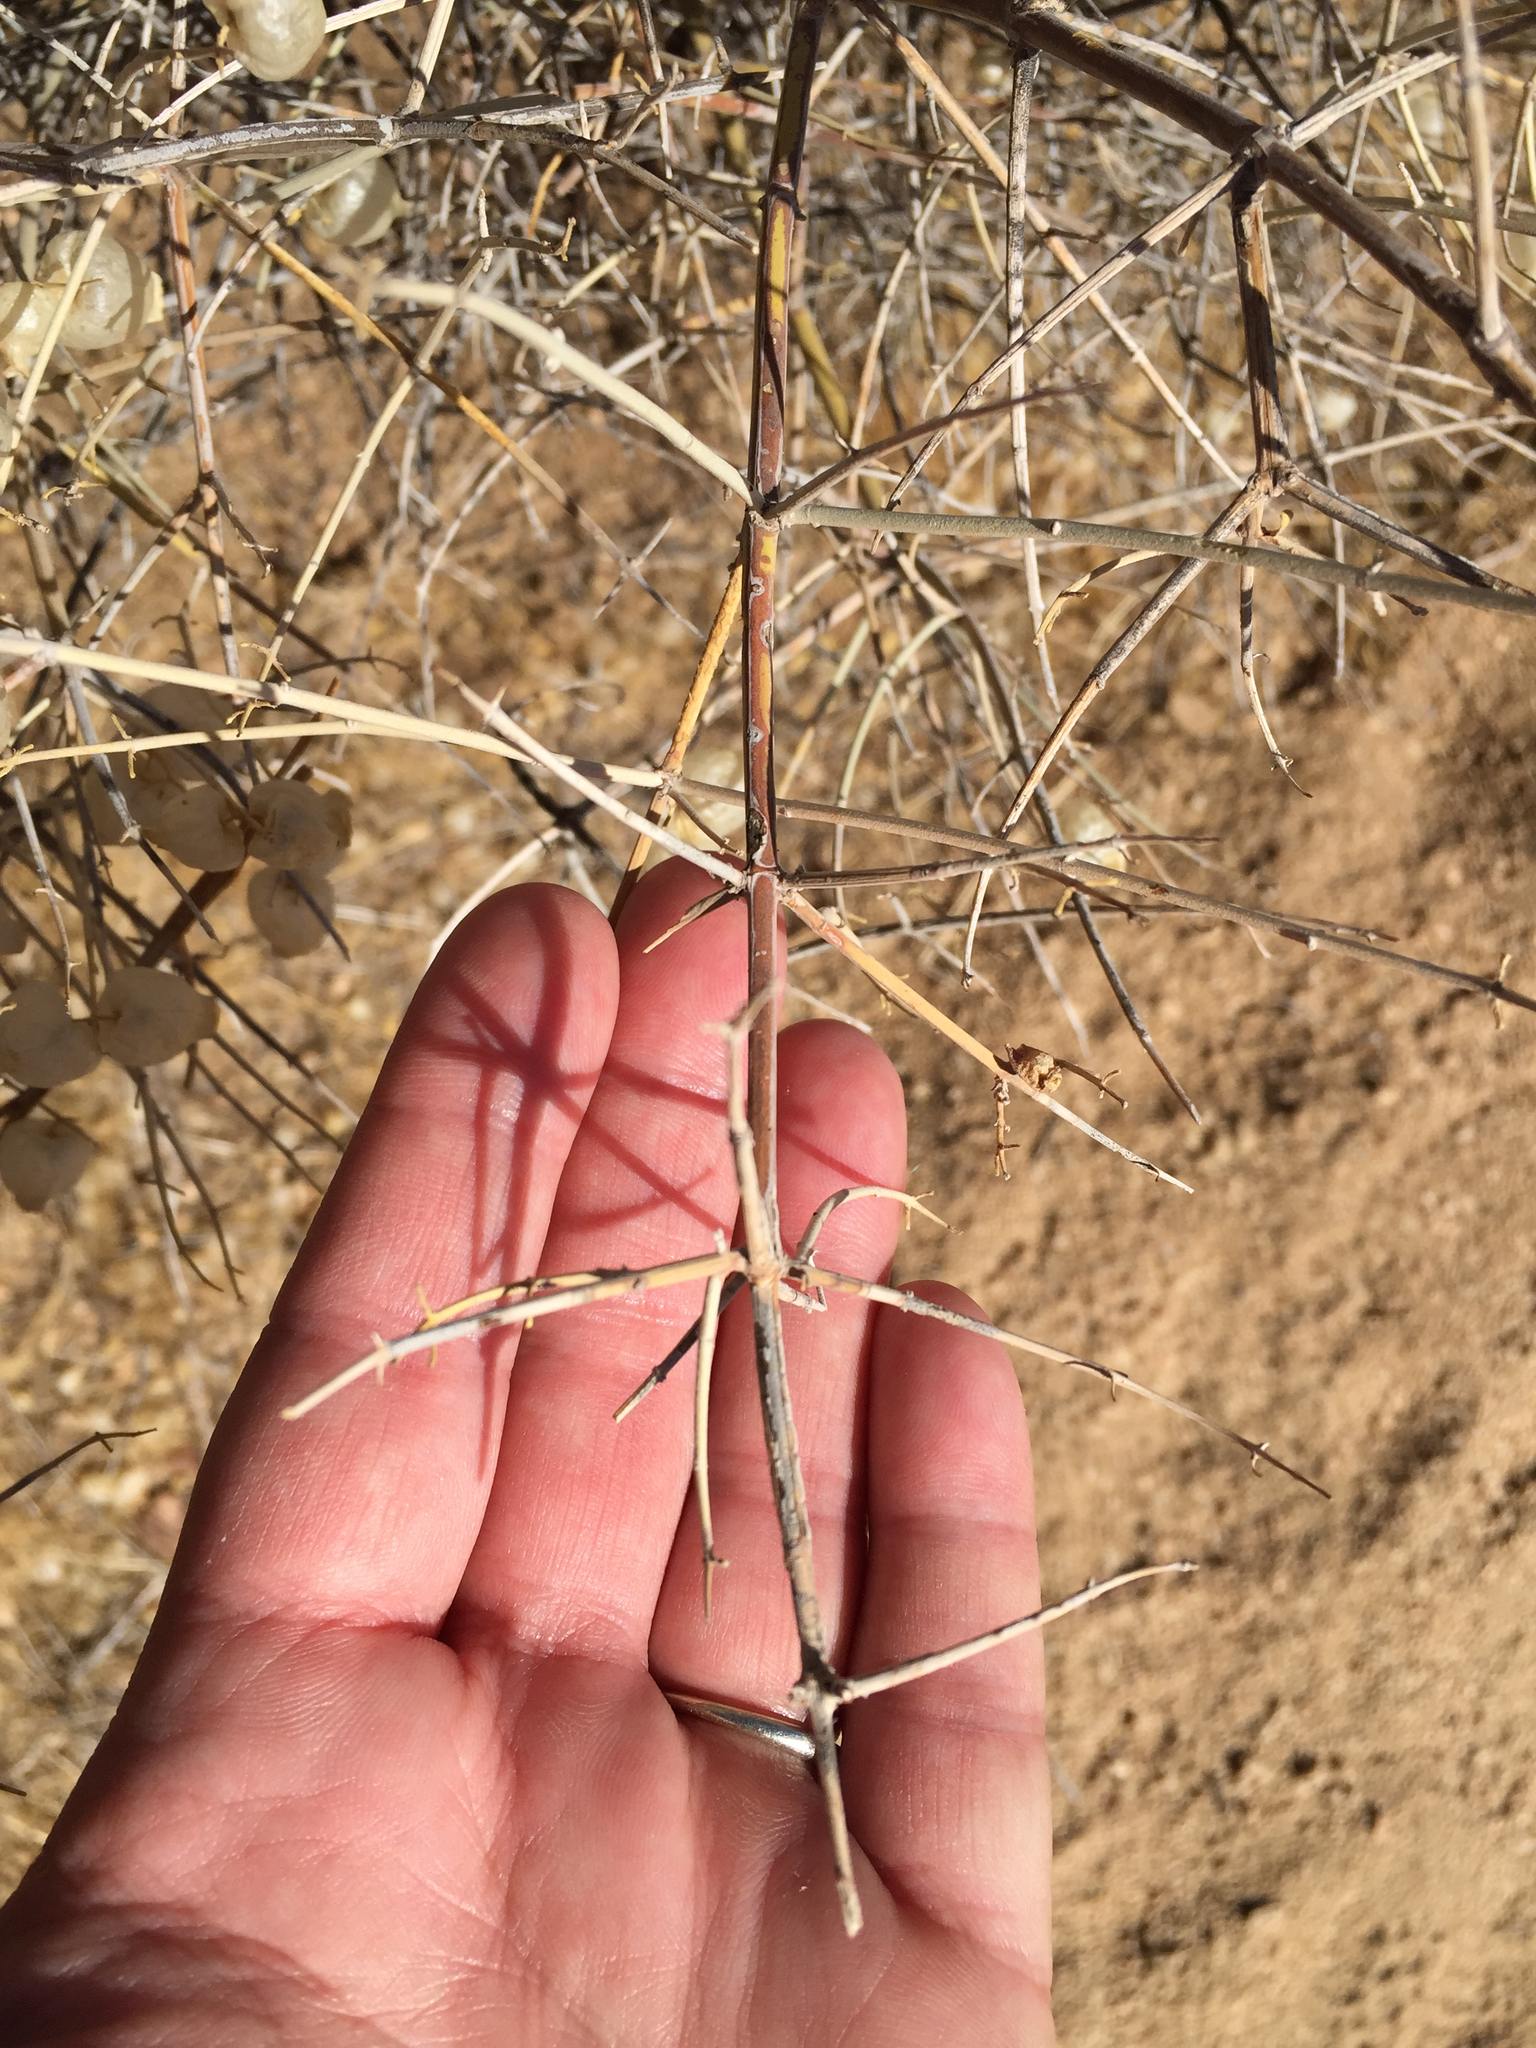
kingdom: Plantae
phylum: Tracheophyta
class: Magnoliopsida
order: Lamiales
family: Lamiaceae
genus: Scutellaria
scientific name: Scutellaria mexicana
